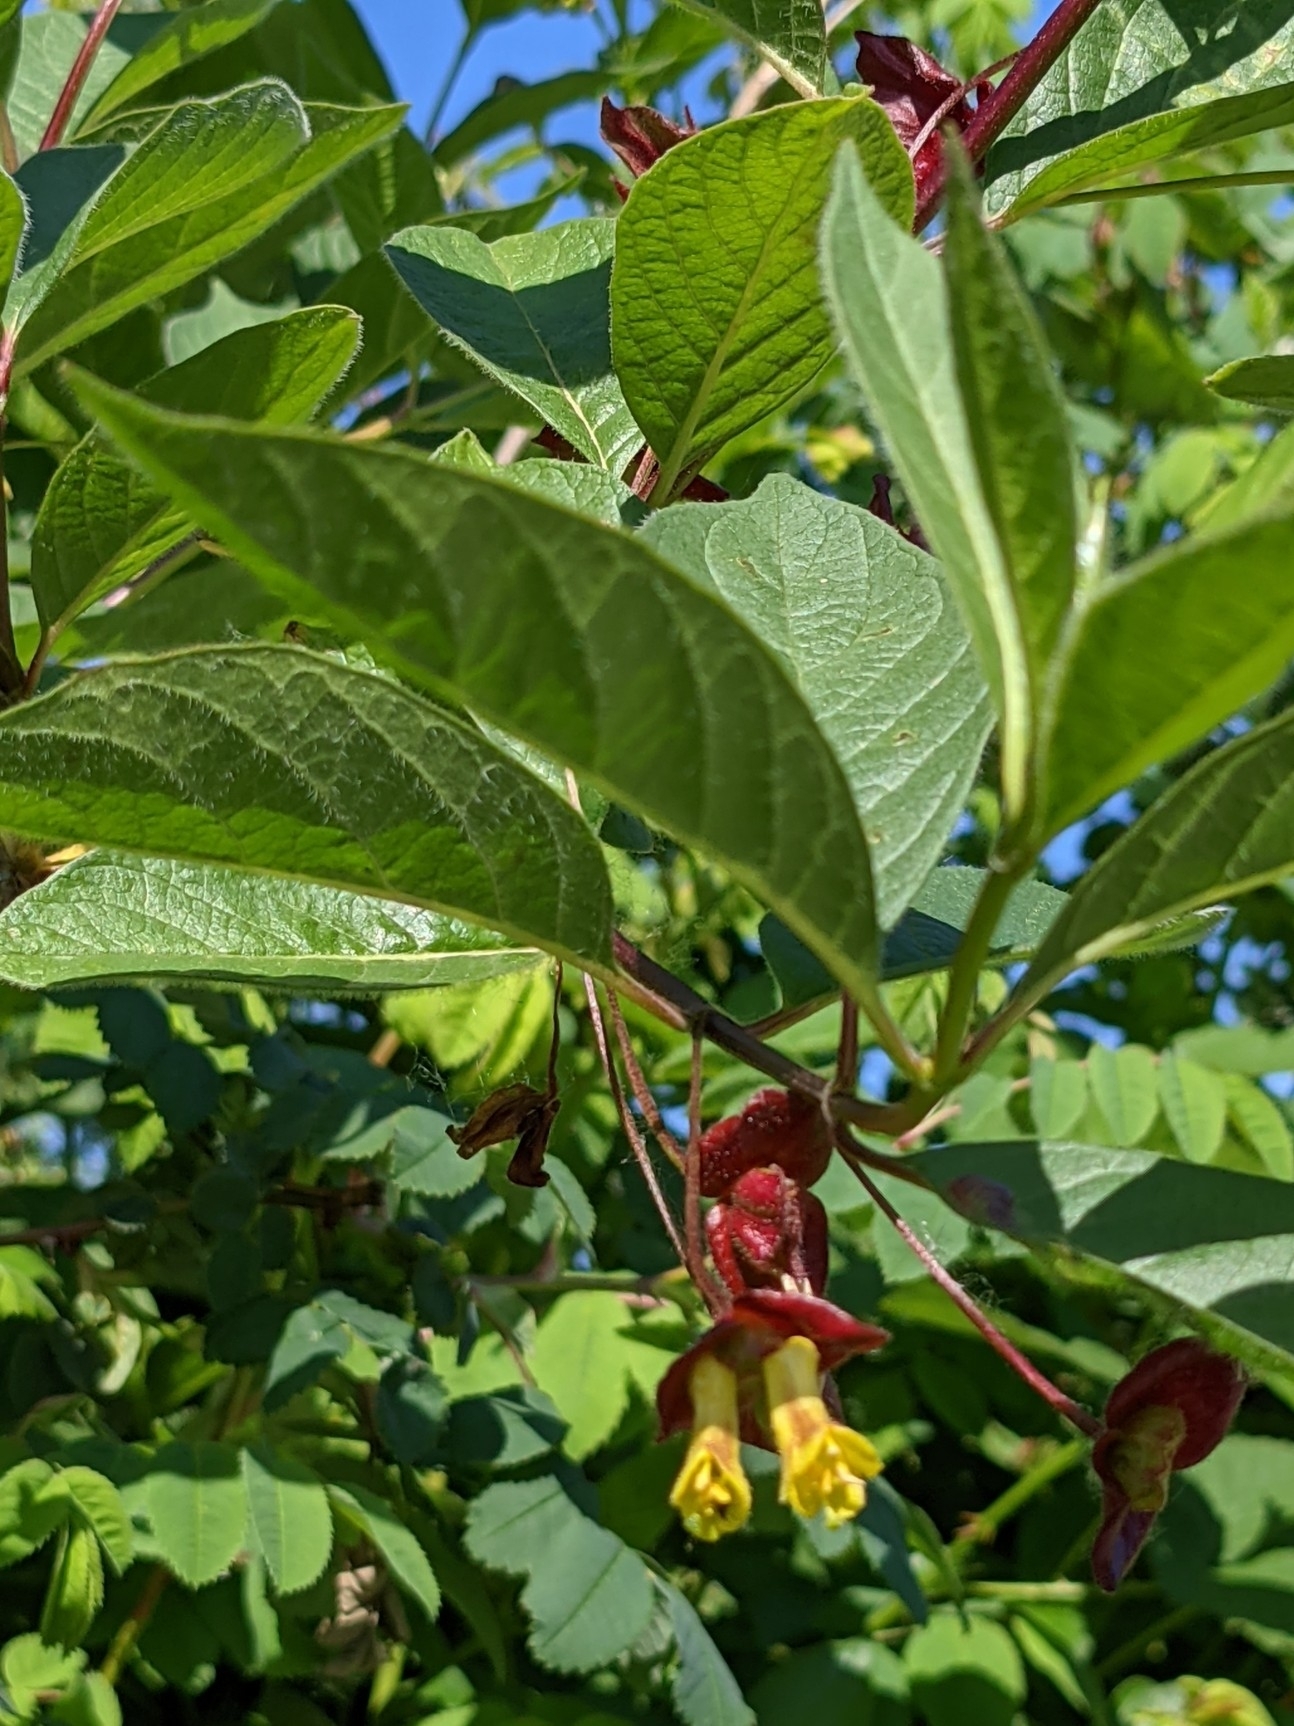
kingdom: Plantae
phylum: Tracheophyta
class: Magnoliopsida
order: Dipsacales
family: Caprifoliaceae
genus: Lonicera
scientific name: Lonicera involucrata
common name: Californian honeysuckle
